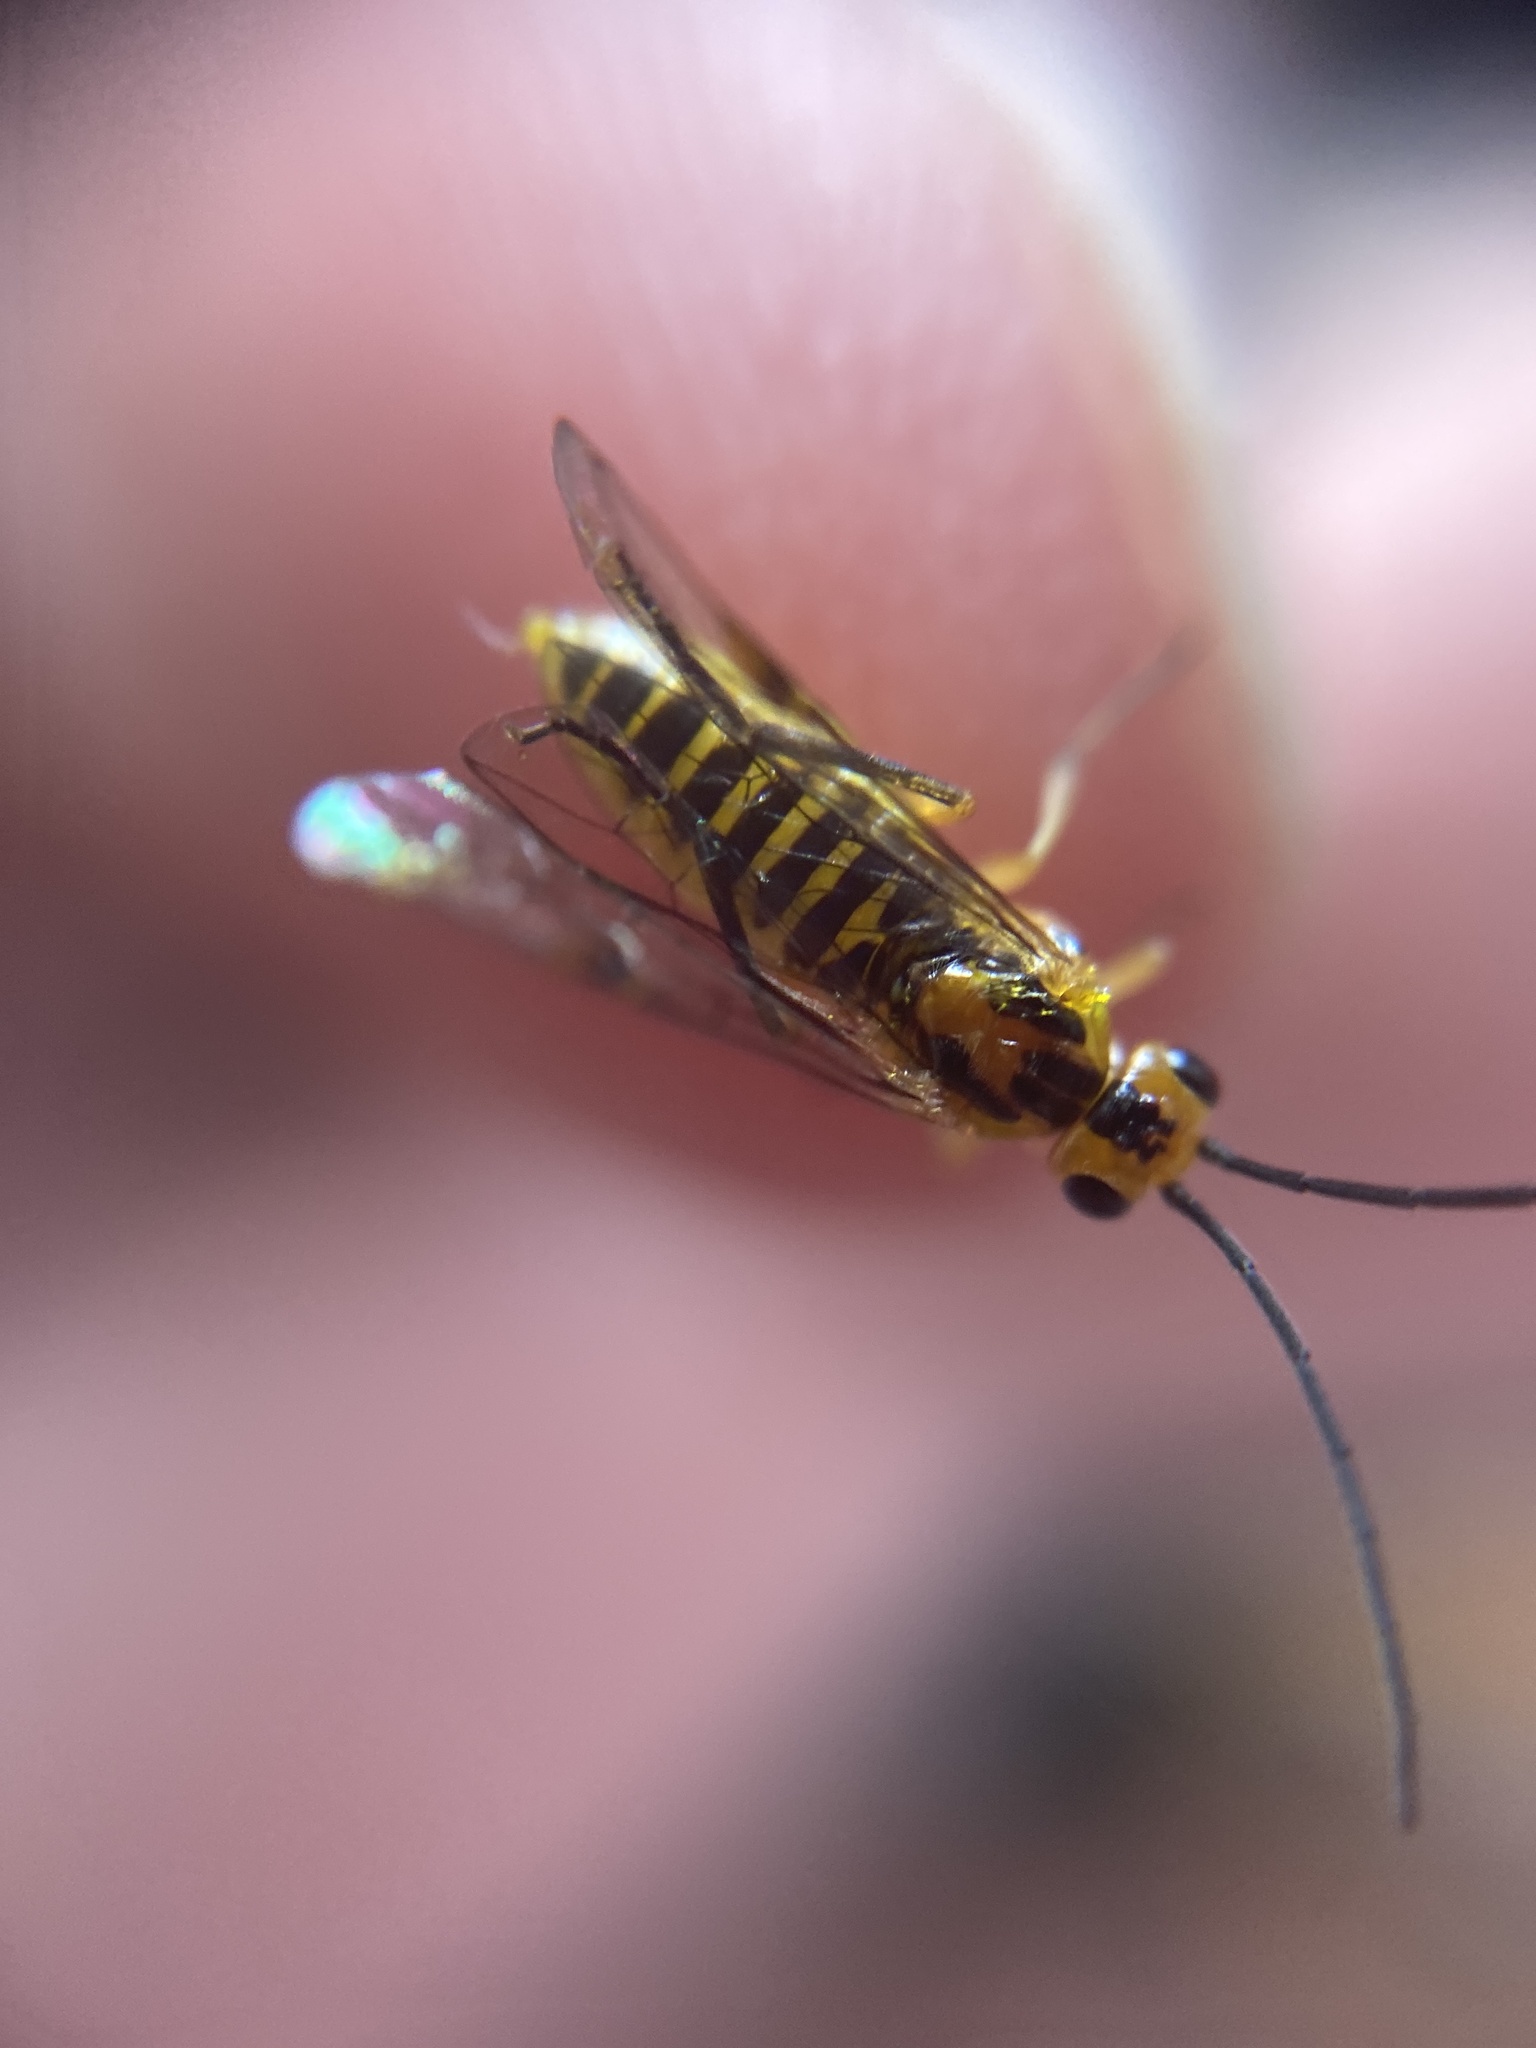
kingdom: Animalia
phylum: Arthropoda
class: Insecta
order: Hymenoptera
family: Tenthredinidae
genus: Euura
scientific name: Euura tibialis
